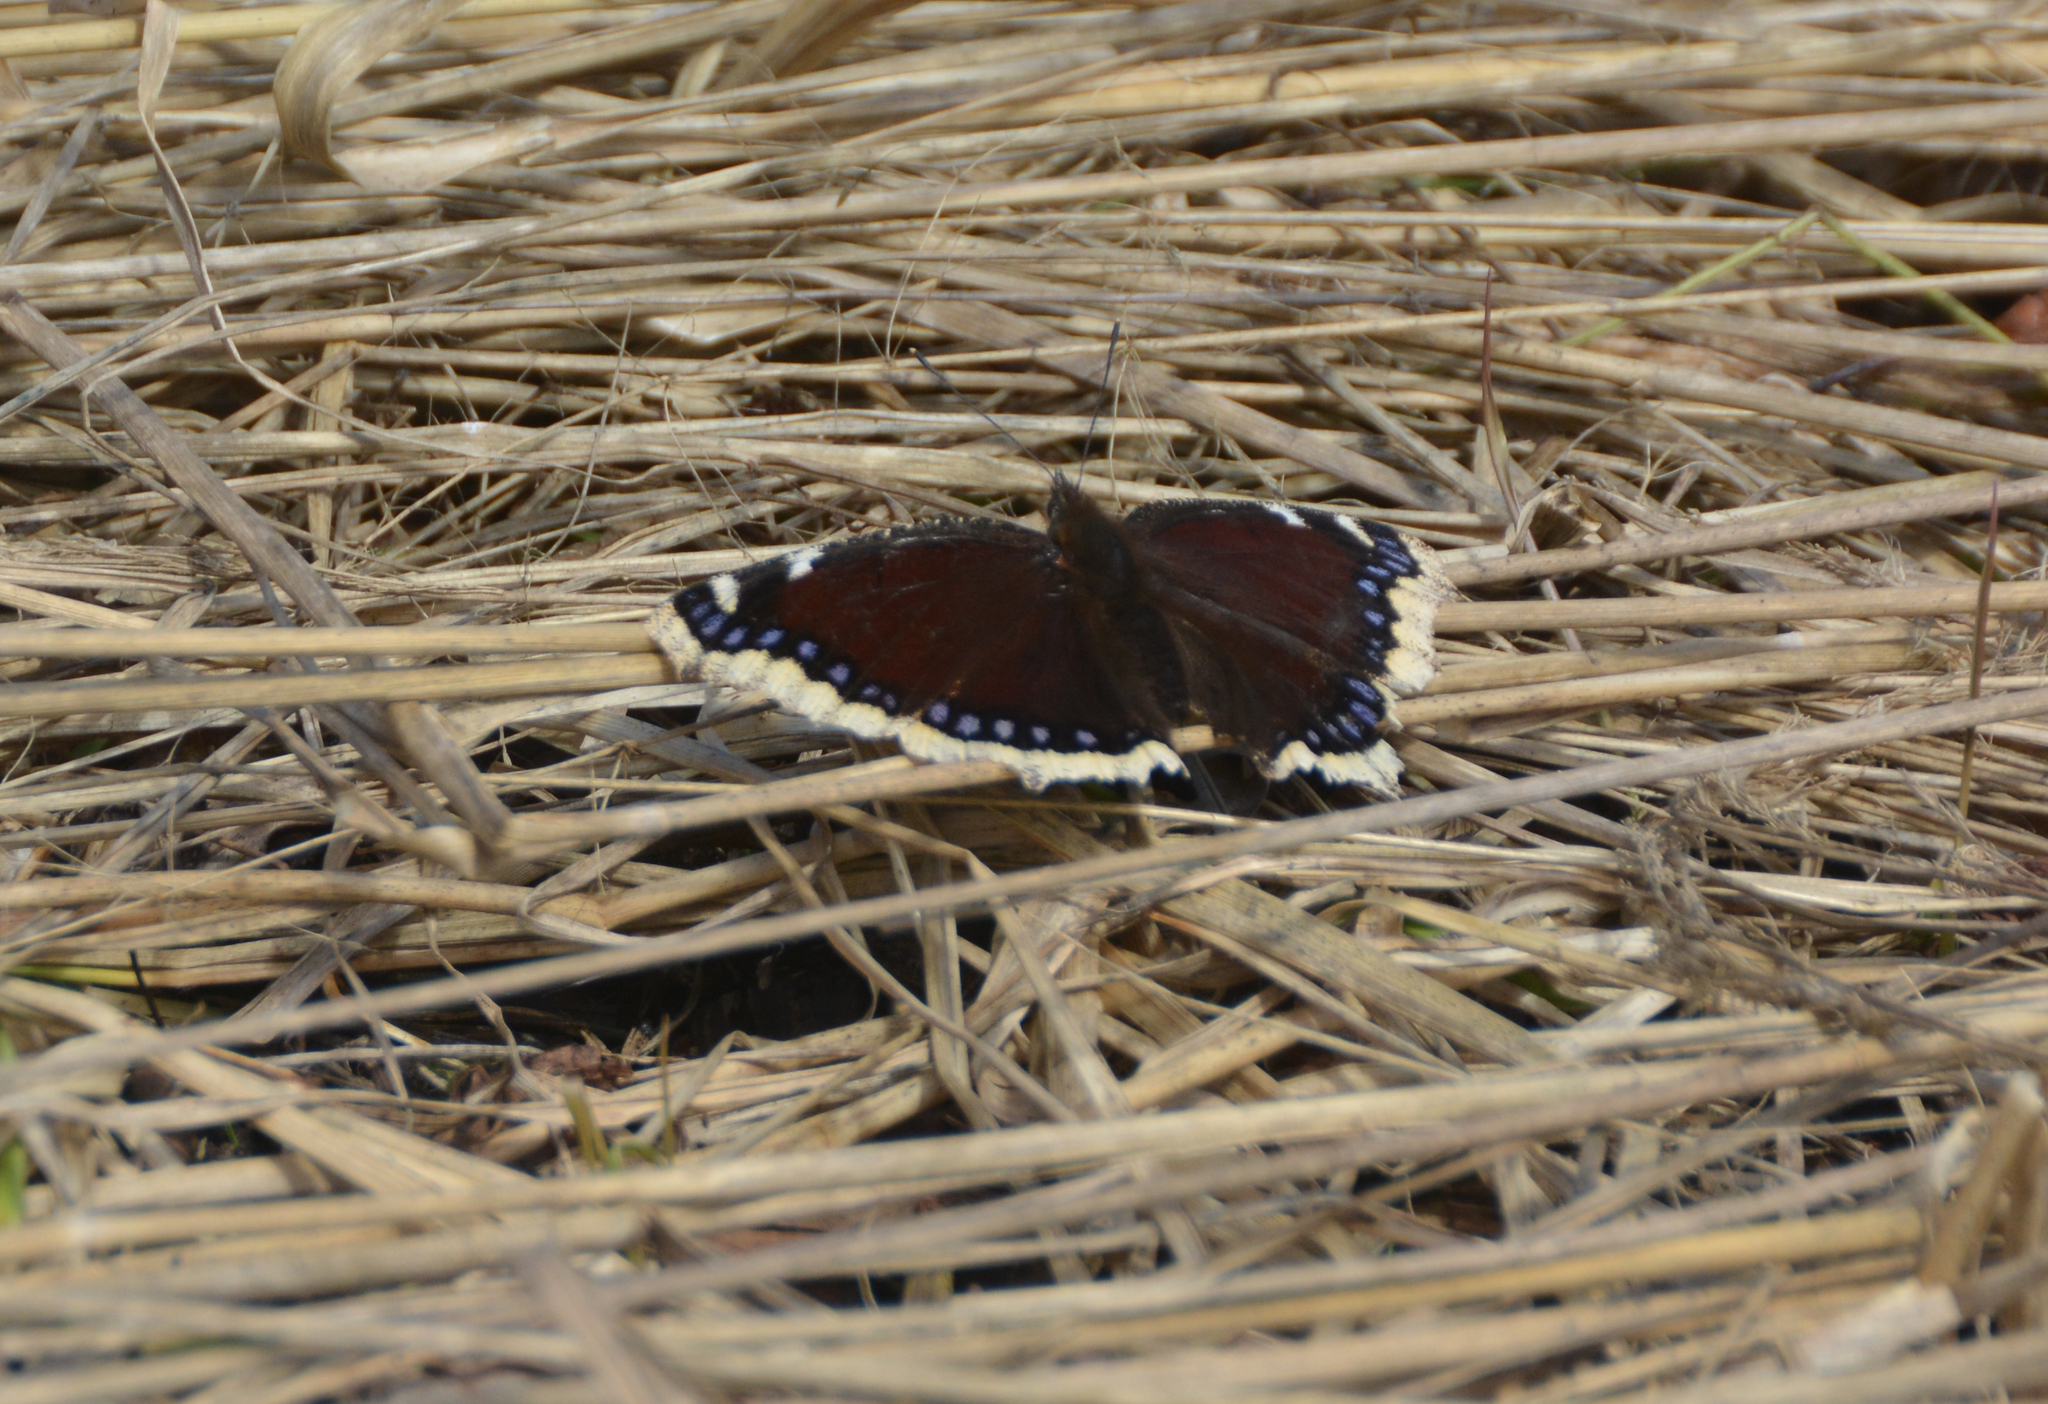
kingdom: Animalia
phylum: Arthropoda
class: Insecta
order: Lepidoptera
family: Nymphalidae
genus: Nymphalis
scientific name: Nymphalis antiopa
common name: Camberwell beauty
